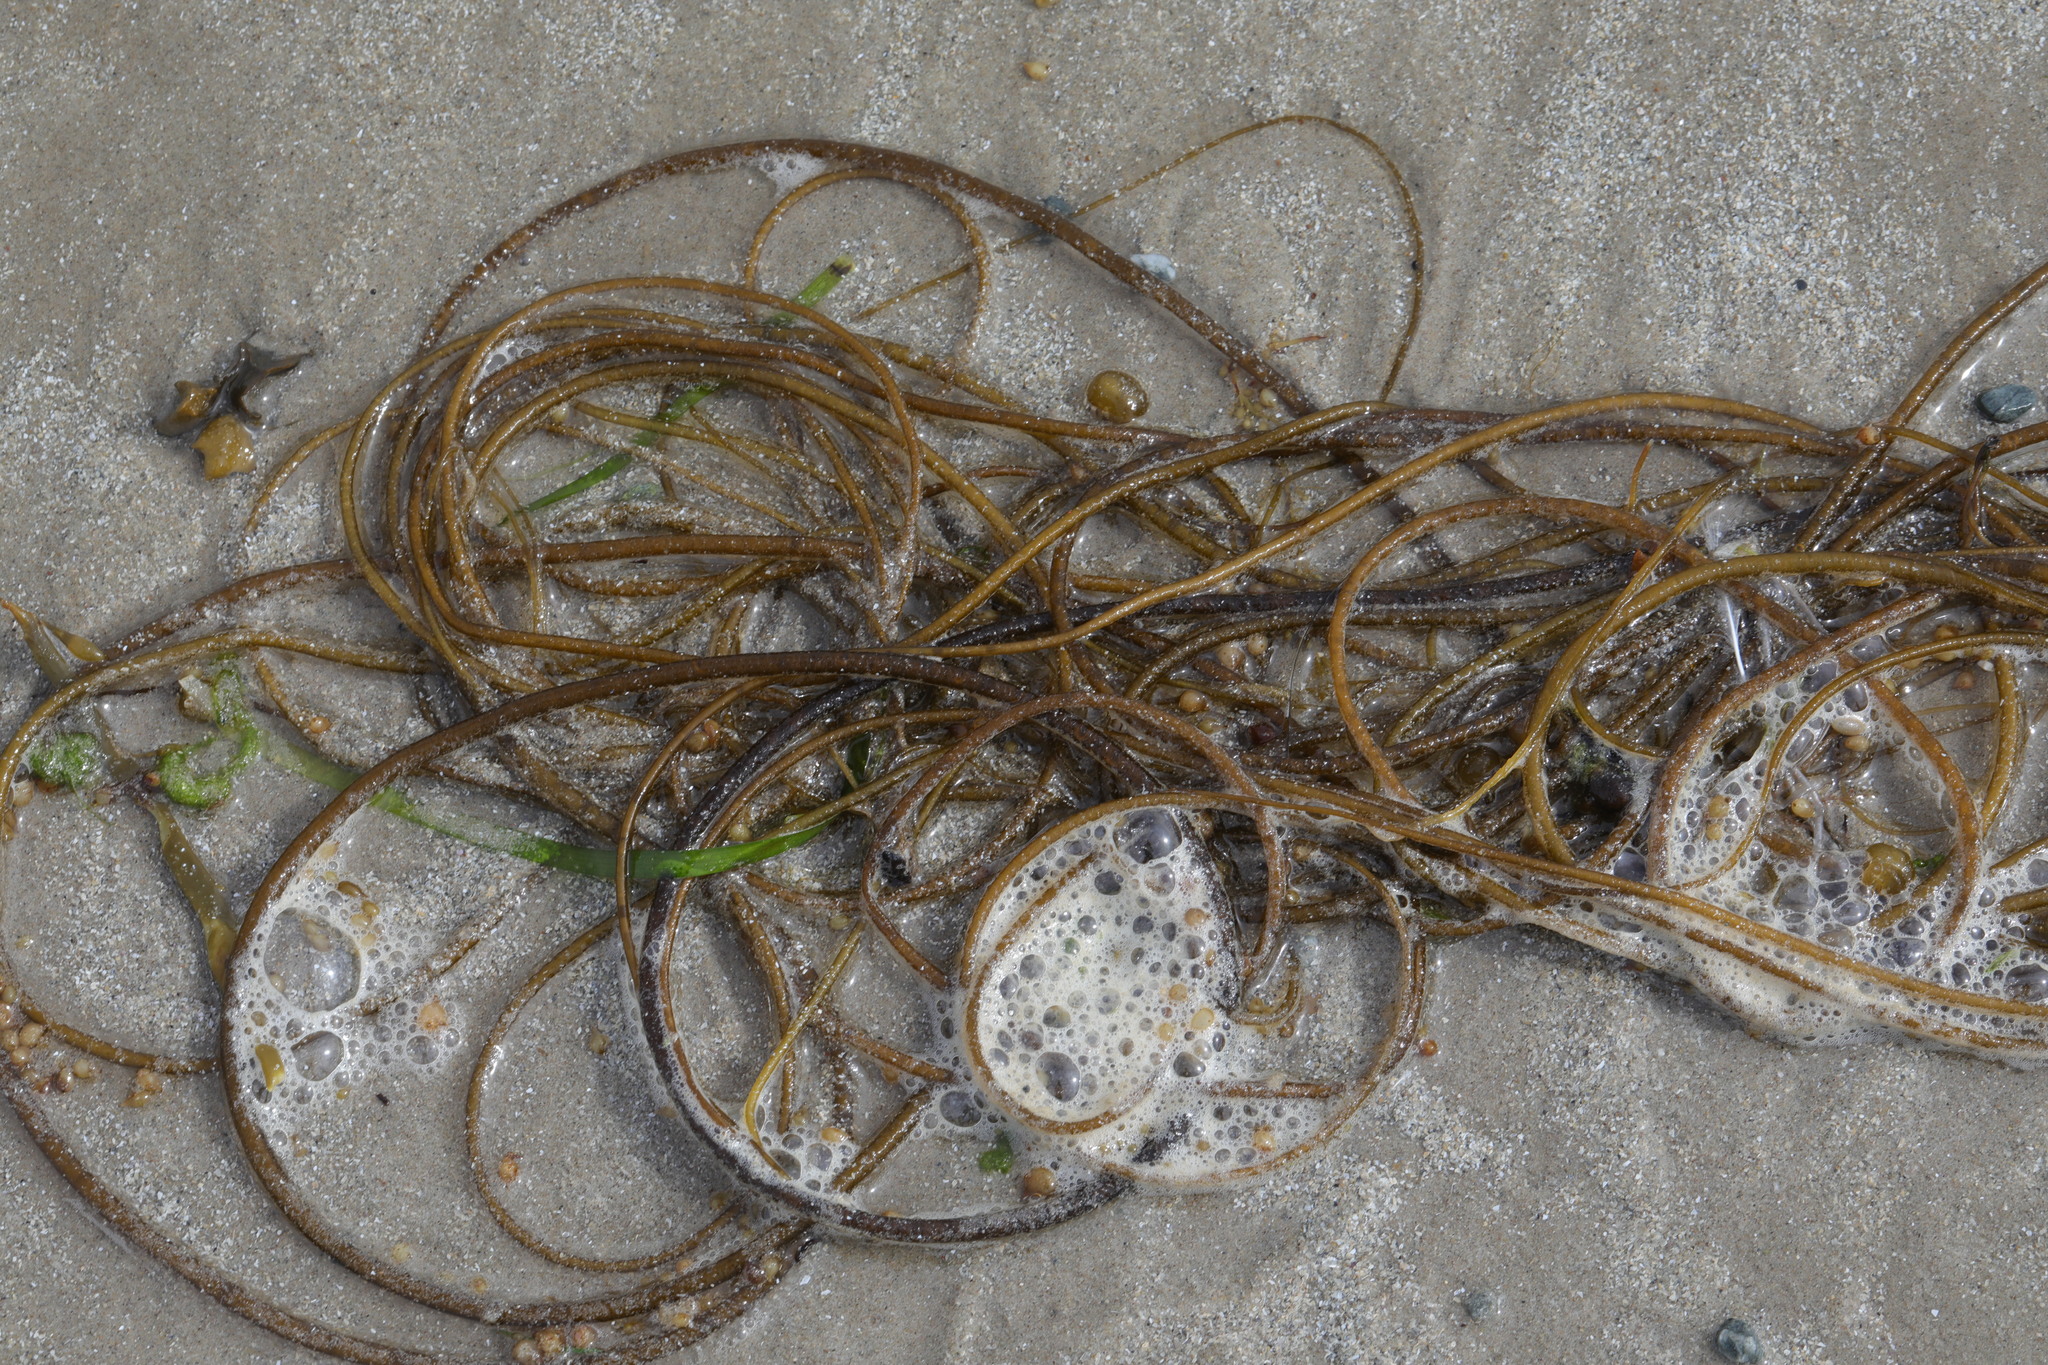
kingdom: Chromista
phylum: Ochrophyta
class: Phaeophyceae
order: Laminariales
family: Chordaceae
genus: Chorda
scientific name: Chorda filum
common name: Mermaid's tresses
